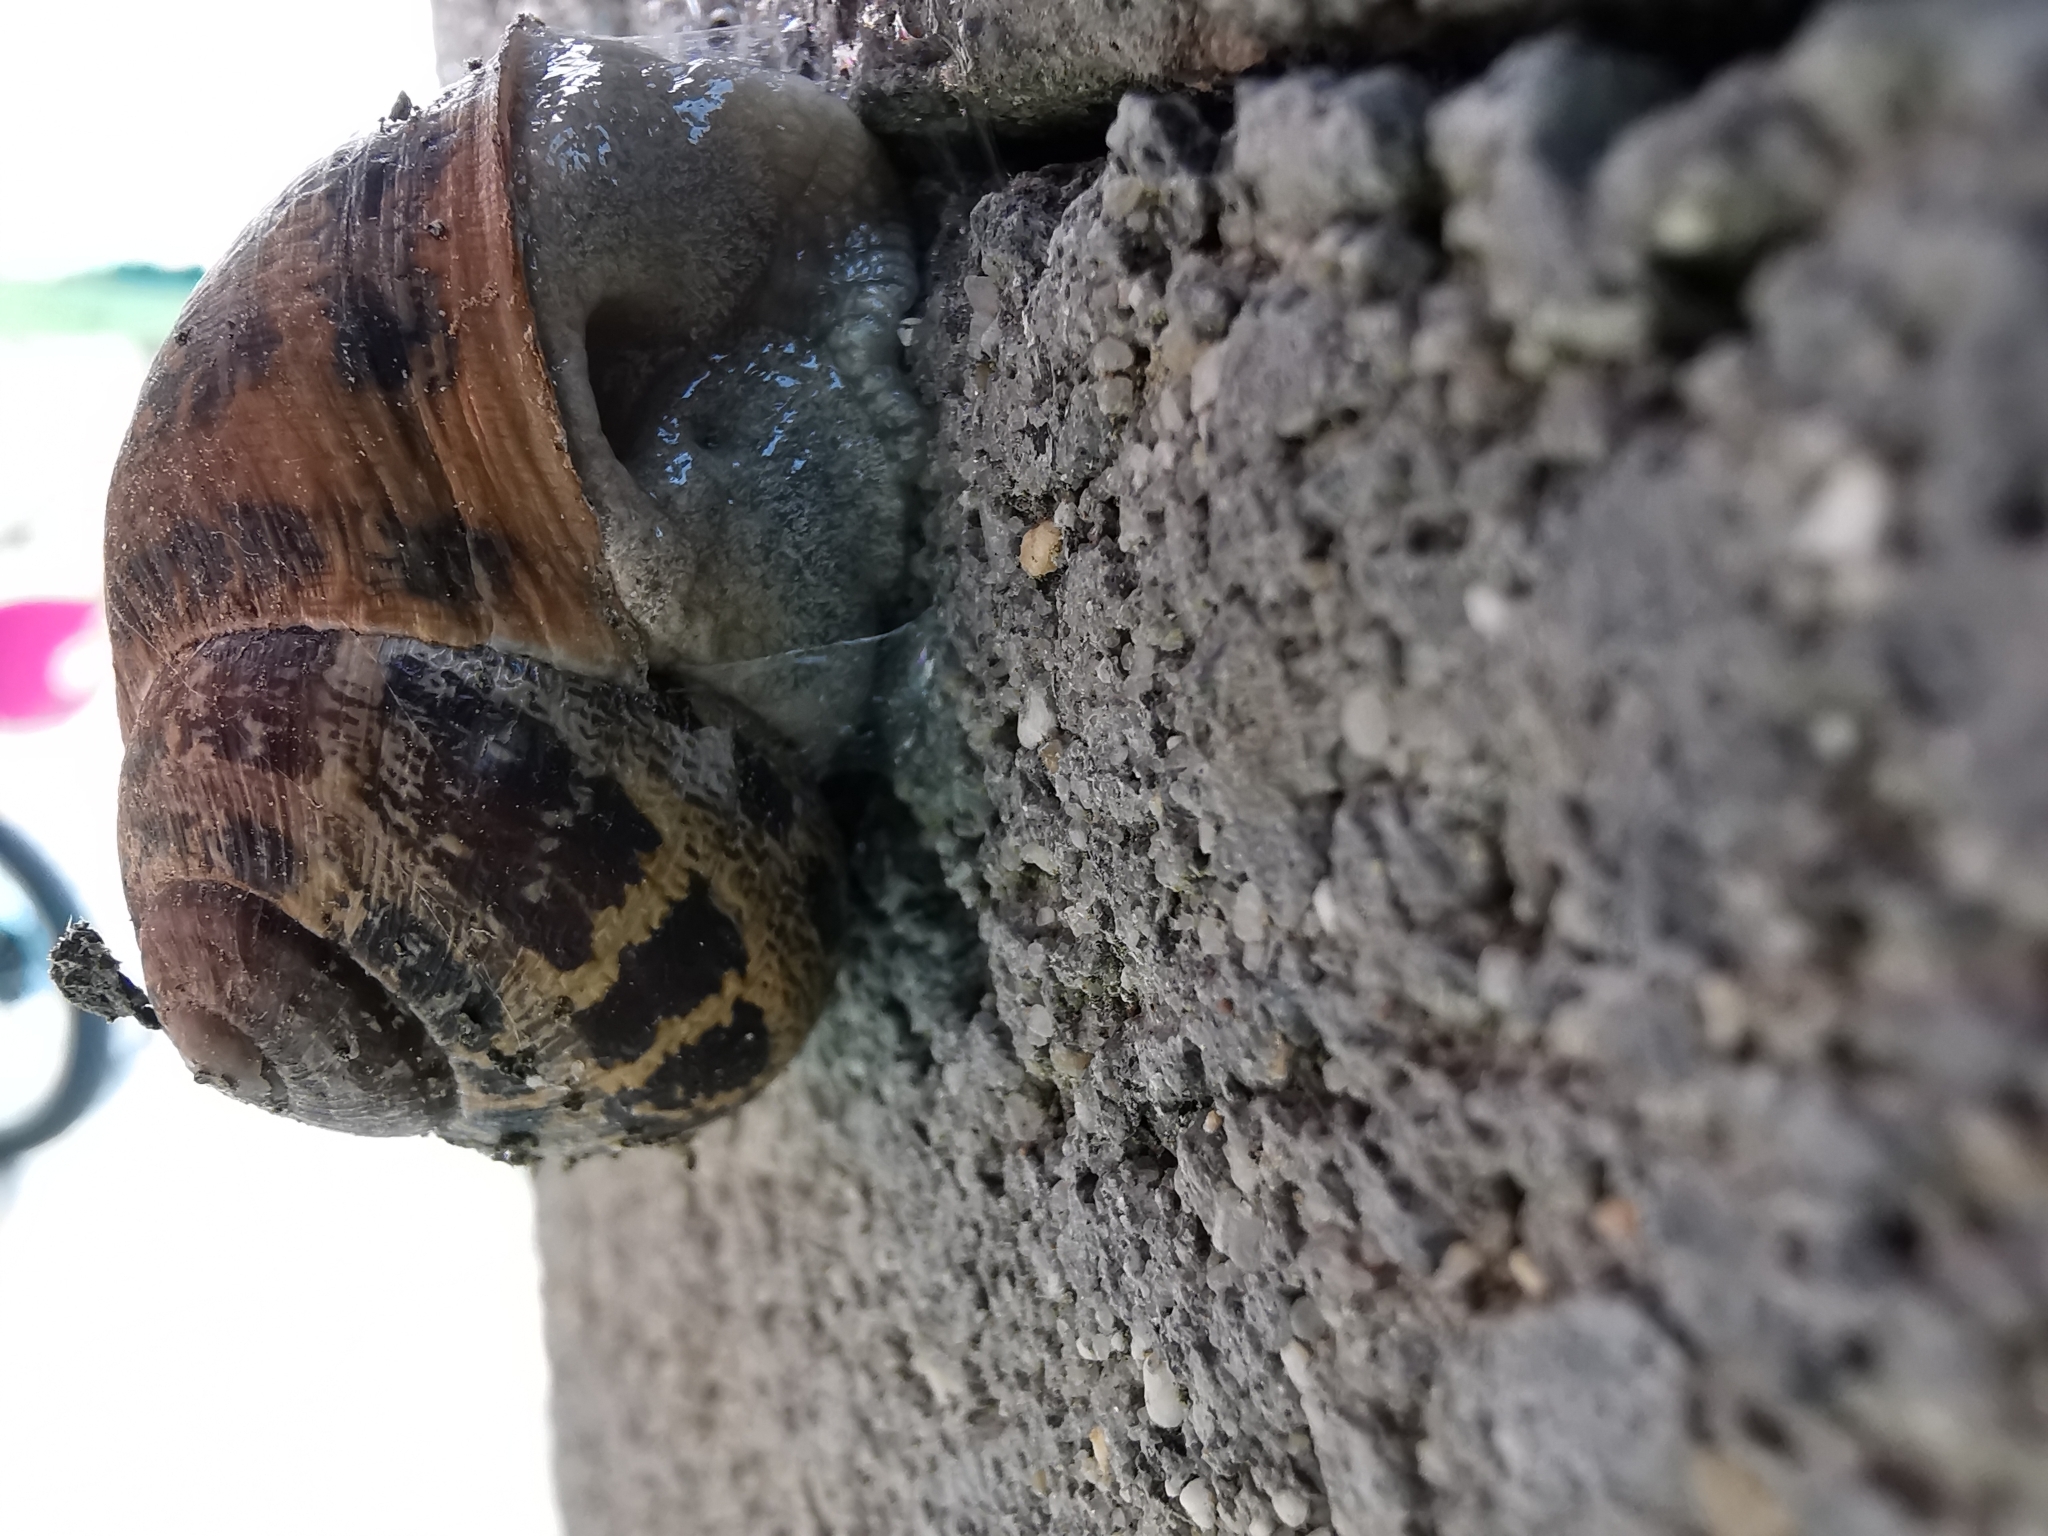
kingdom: Animalia
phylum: Mollusca
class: Gastropoda
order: Stylommatophora
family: Helicidae
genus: Cornu
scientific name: Cornu aspersum
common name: Brown garden snail
